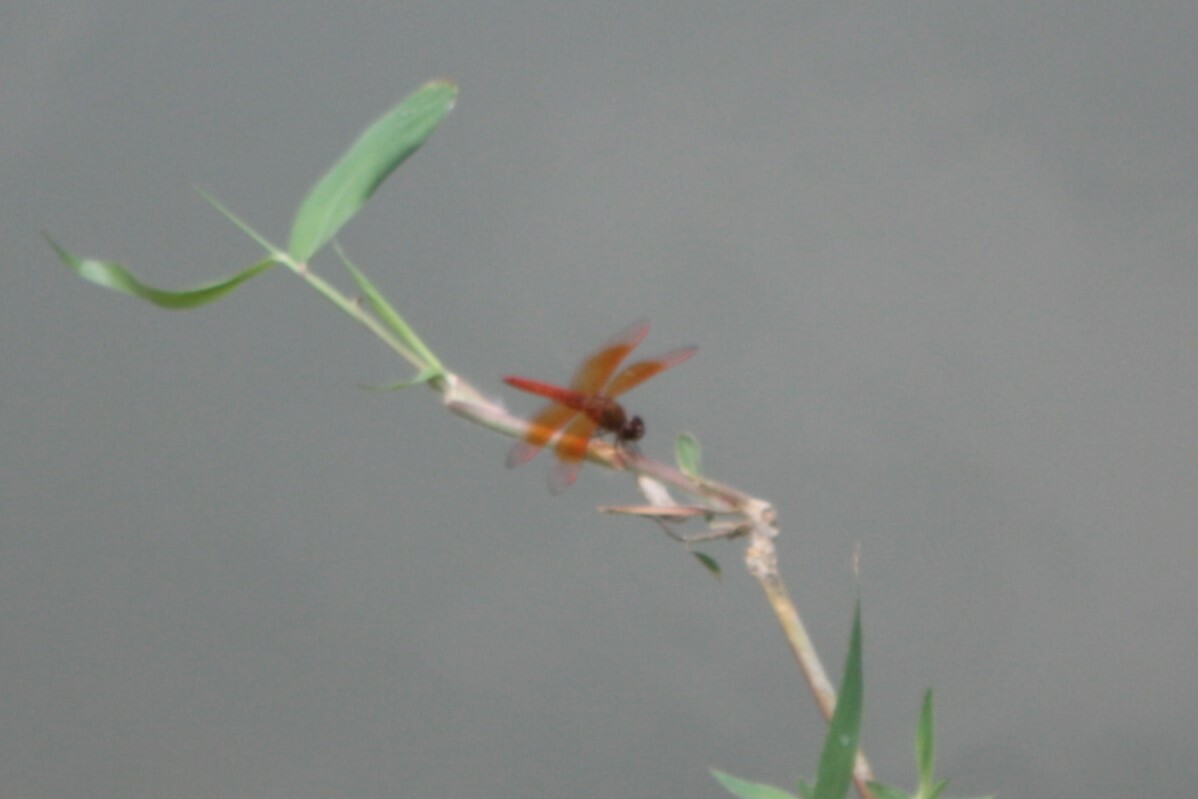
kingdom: Animalia
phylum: Arthropoda
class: Insecta
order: Odonata
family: Libellulidae
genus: Brachythemis
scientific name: Brachythemis contaminata
